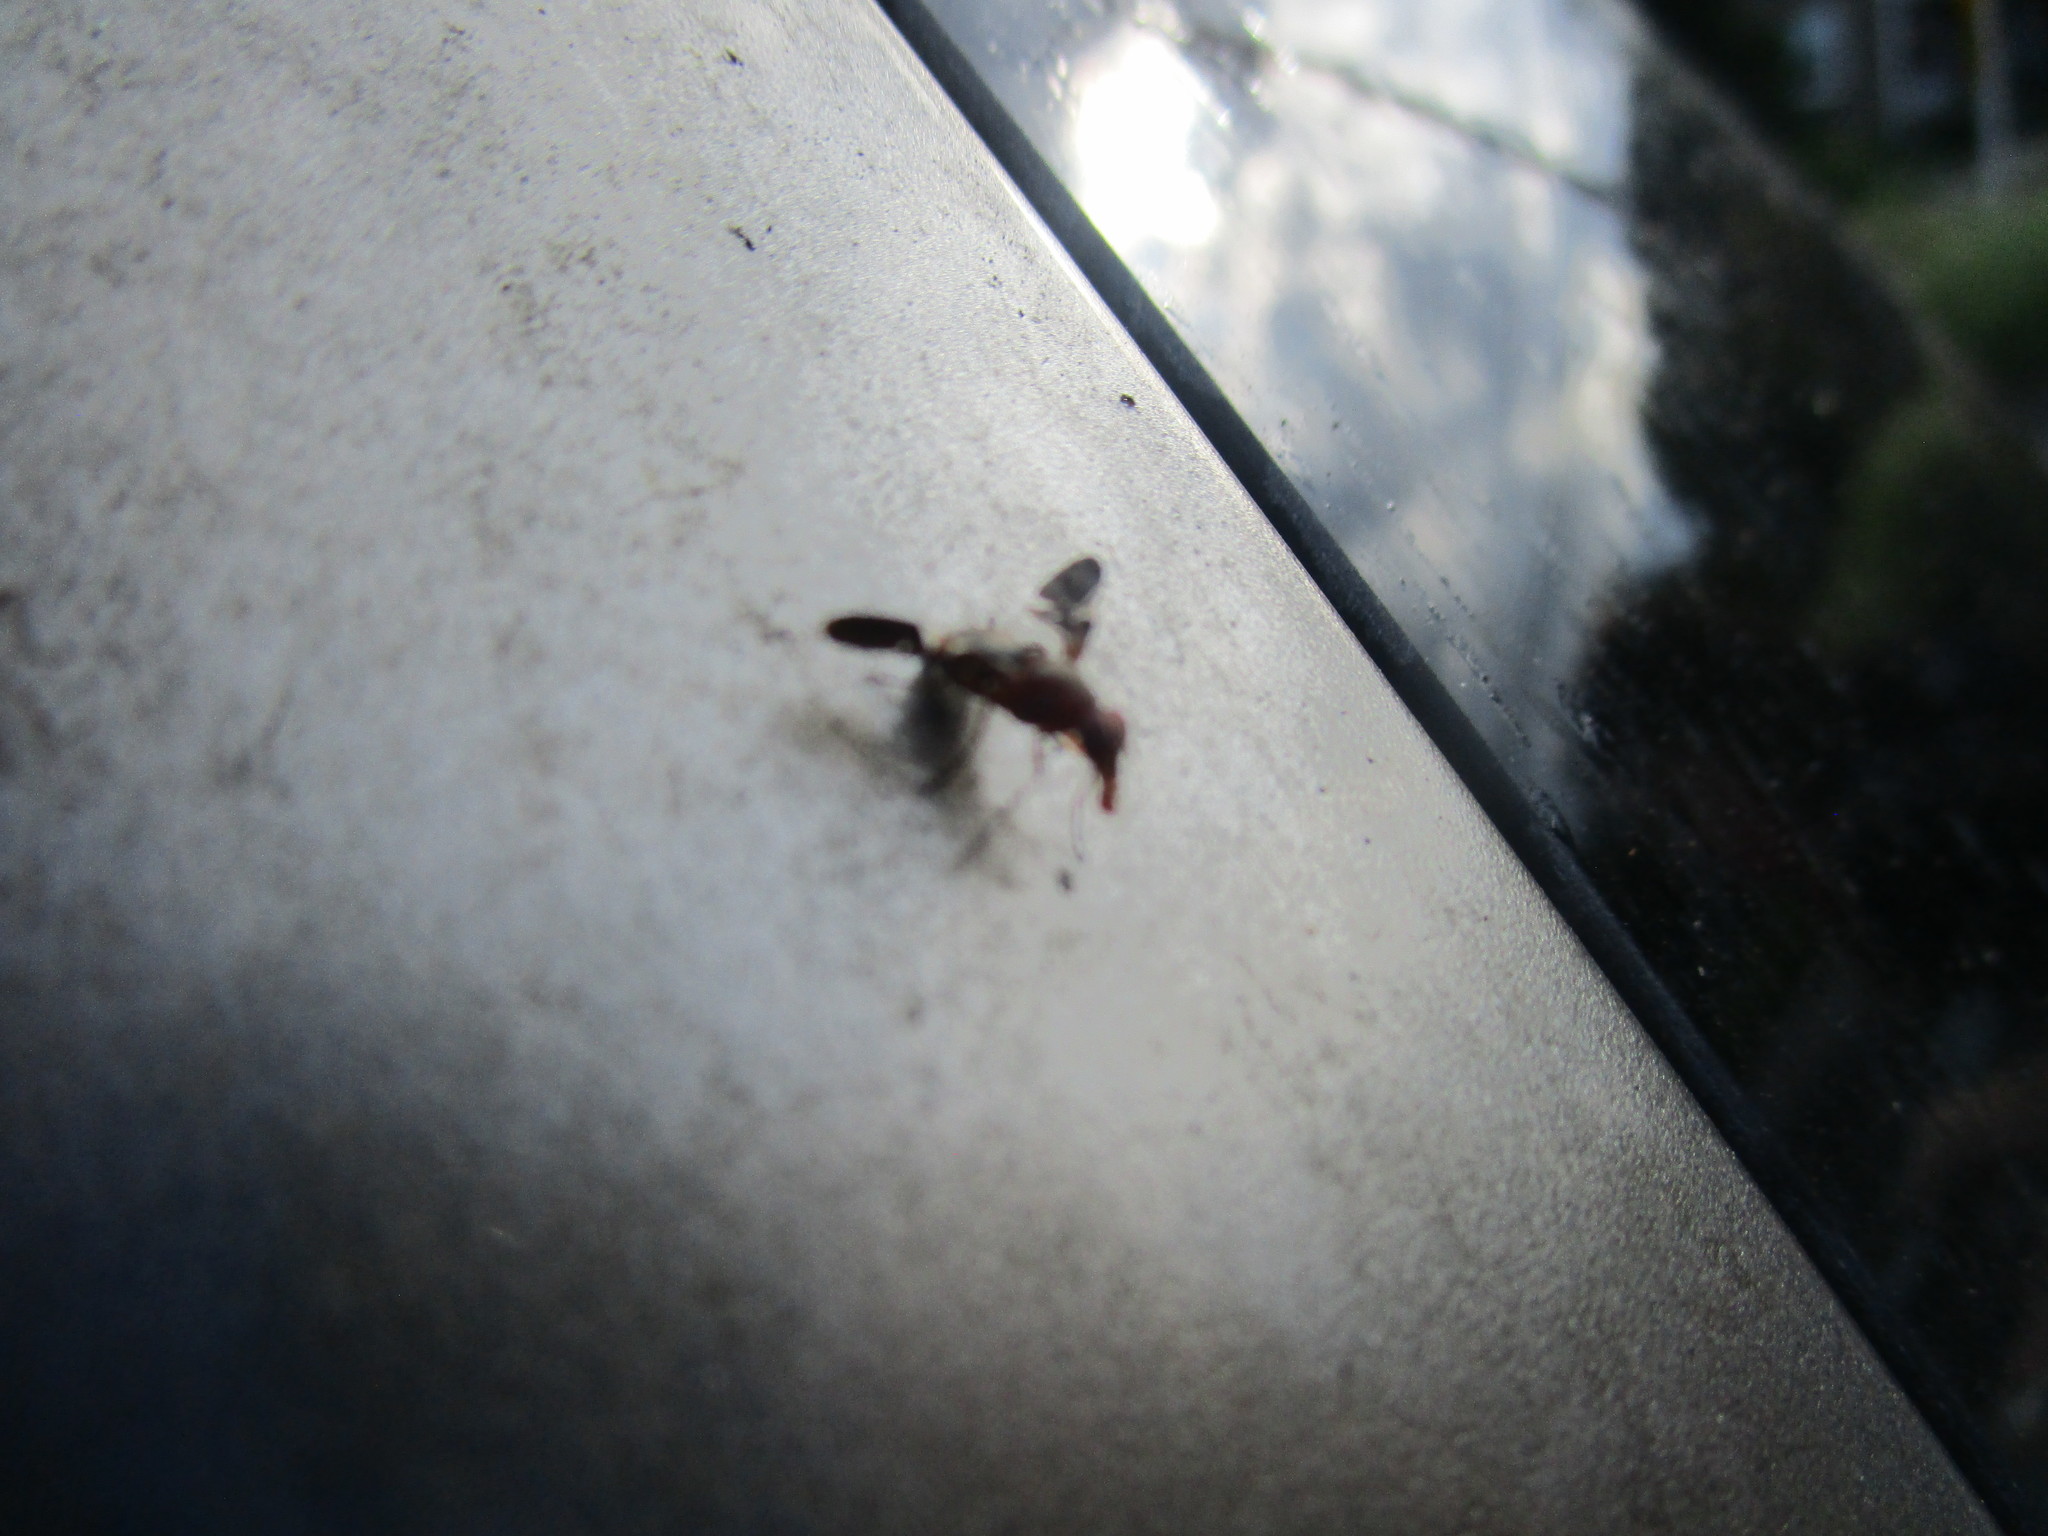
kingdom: Animalia
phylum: Arthropoda
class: Insecta
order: Diptera
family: Ulidiidae
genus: Delphinia
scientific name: Delphinia picta
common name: Common picture-winged fly
